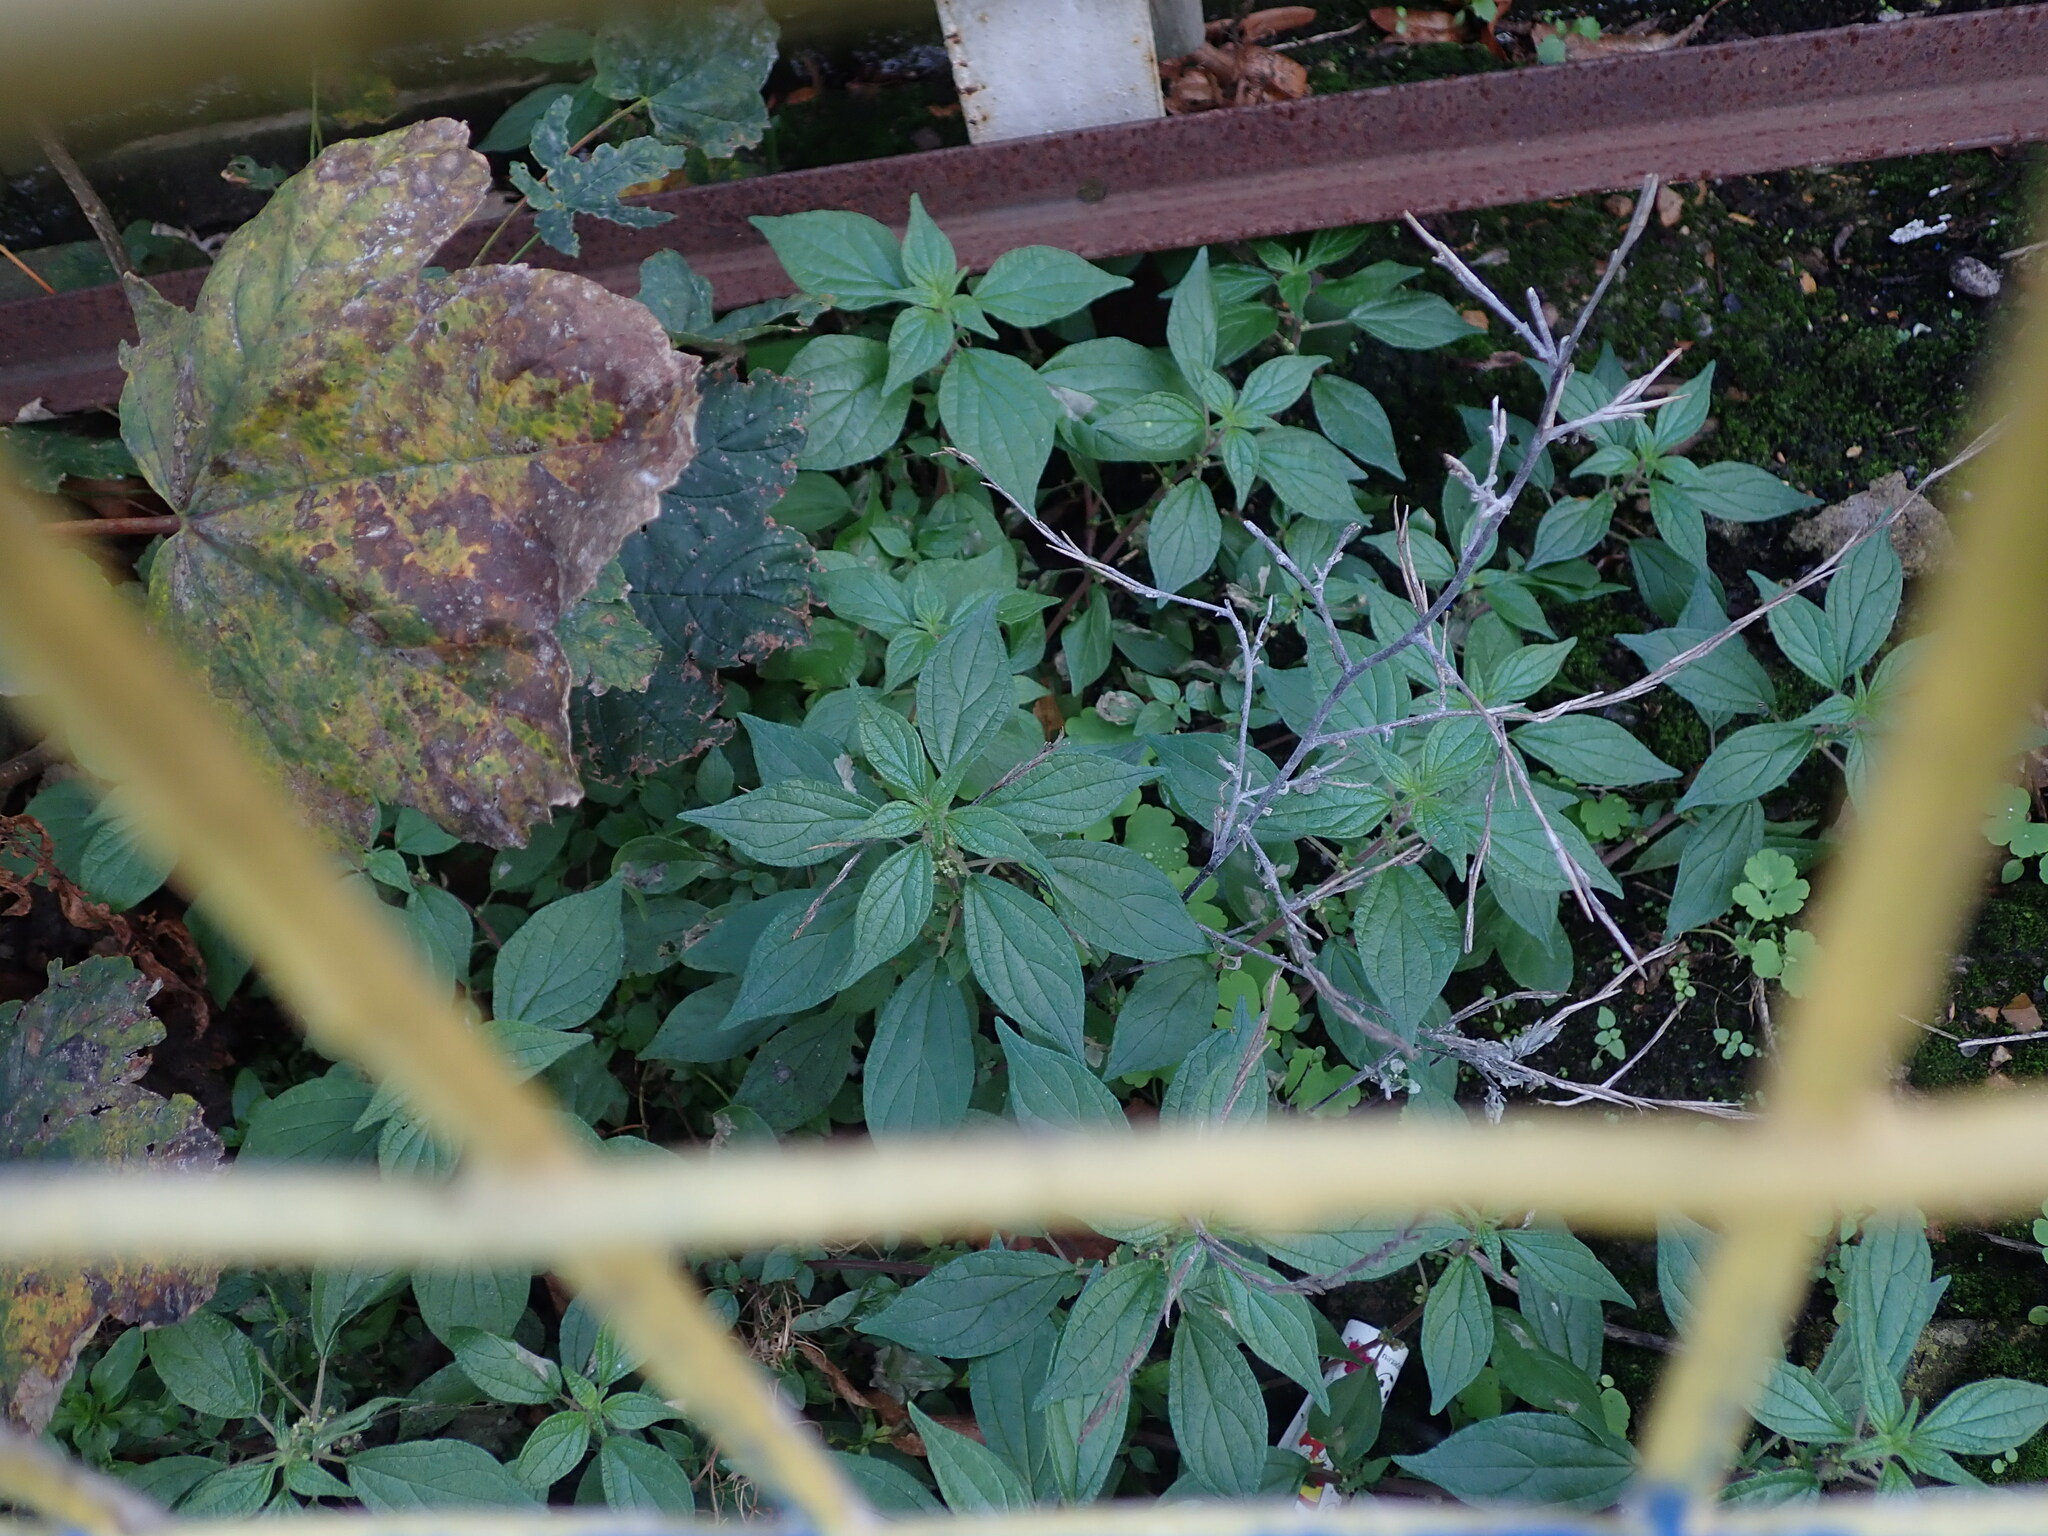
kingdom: Plantae
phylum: Tracheophyta
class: Magnoliopsida
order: Rosales
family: Urticaceae
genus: Parietaria
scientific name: Parietaria judaica
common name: Pellitory-of-the-wall
